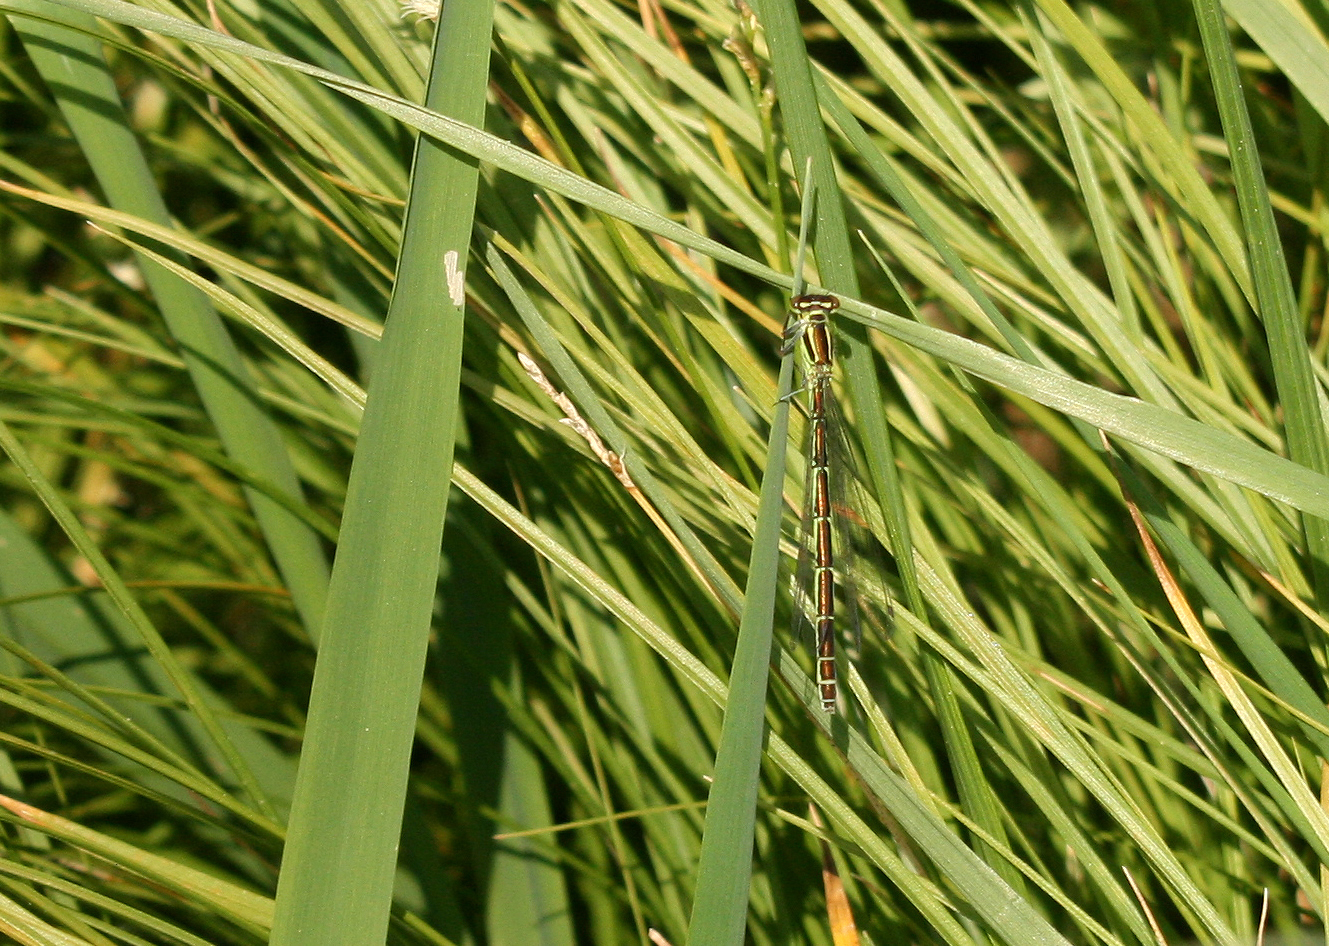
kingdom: Animalia
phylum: Arthropoda
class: Insecta
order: Odonata
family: Coenagrionidae
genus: Coenagrion
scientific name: Coenagrion hastulatum
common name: Spearhead bluet
